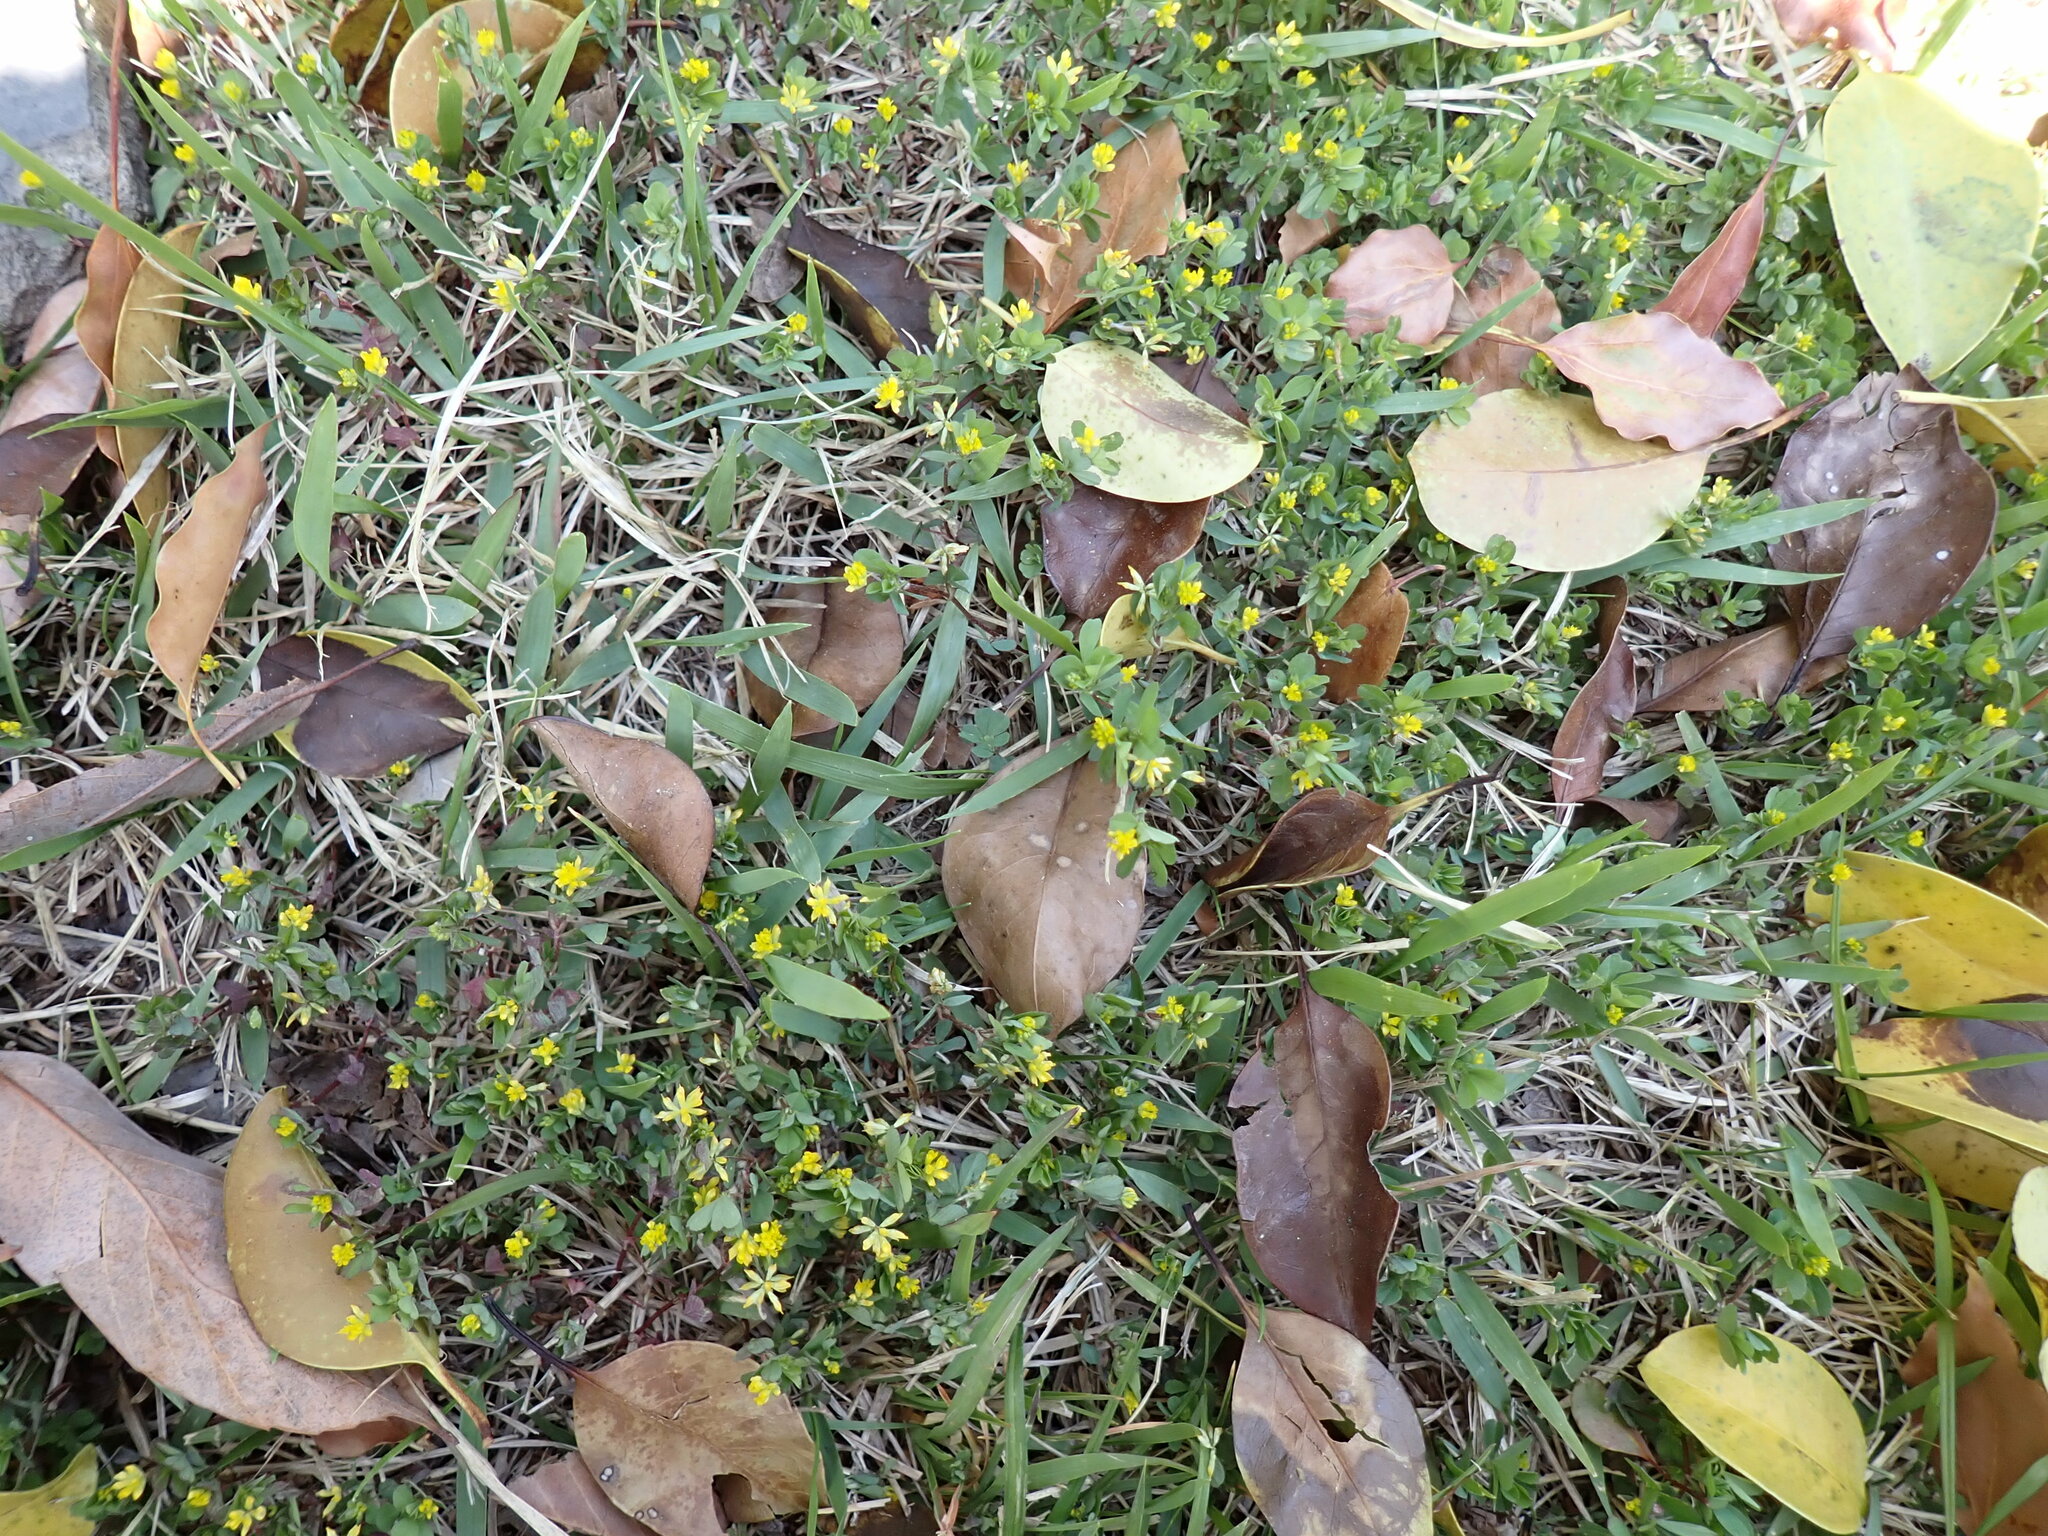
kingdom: Plantae
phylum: Tracheophyta
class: Magnoliopsida
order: Fabales
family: Fabaceae
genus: Trifolium
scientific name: Trifolium dubium
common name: Suckling clover
